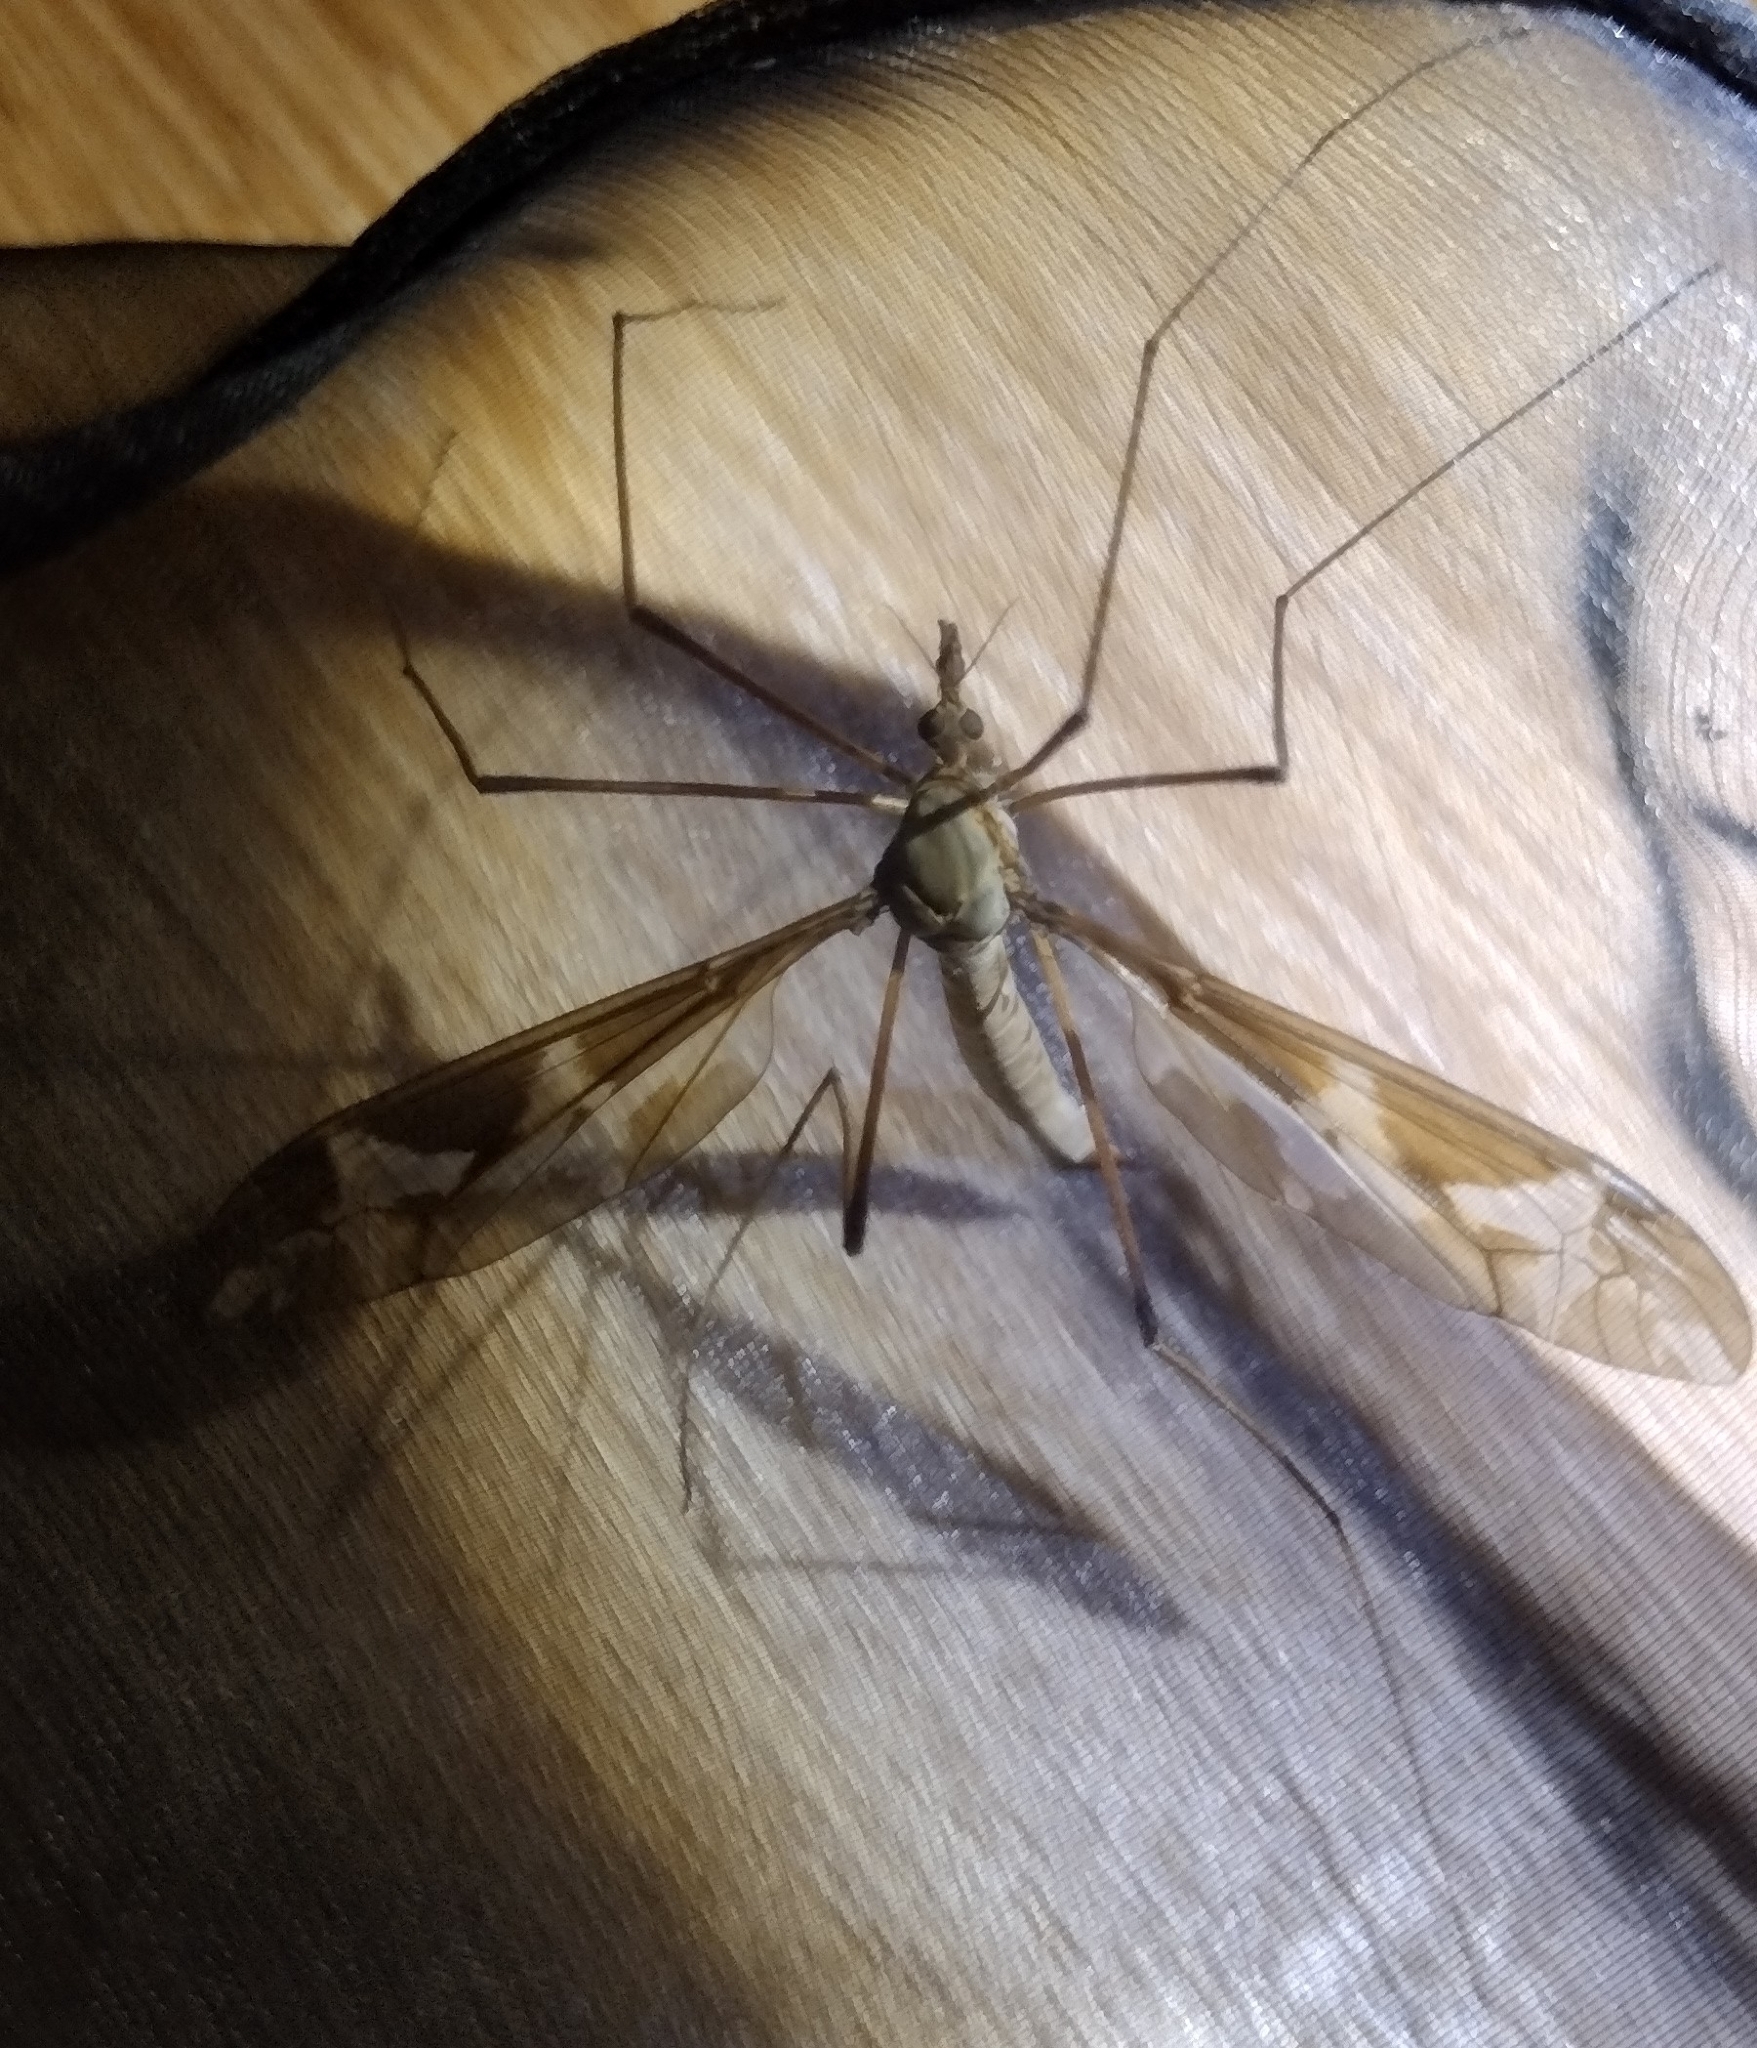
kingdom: Animalia
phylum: Arthropoda
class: Insecta
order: Diptera
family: Tipulidae
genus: Tipula
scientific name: Tipula maxima
